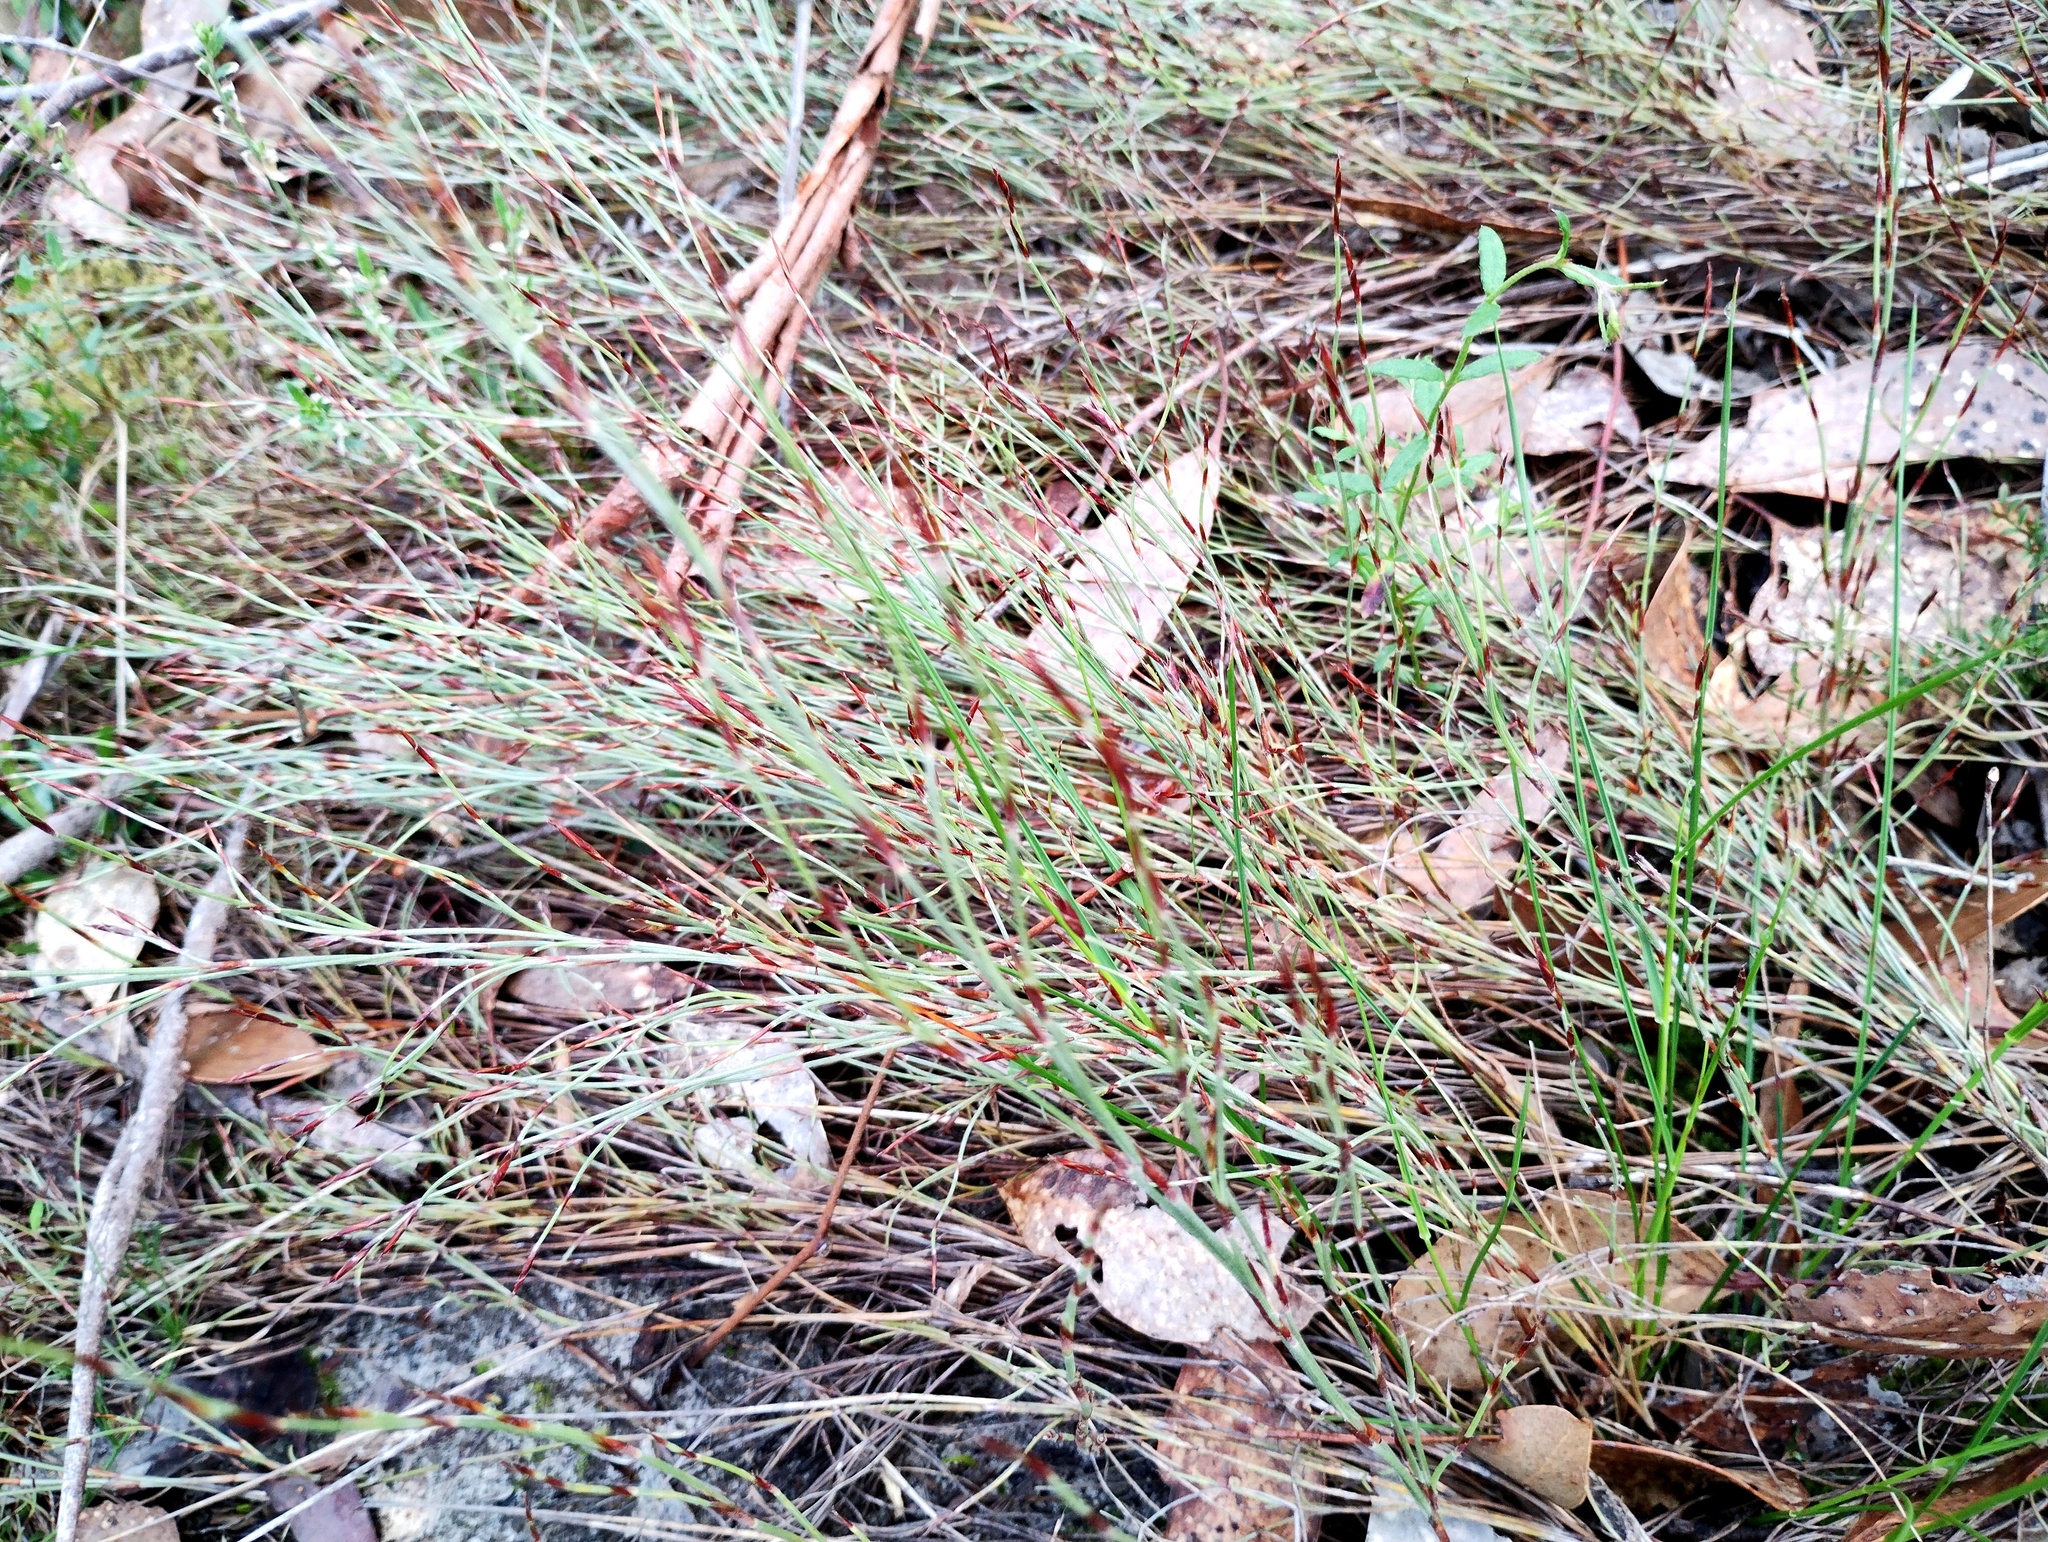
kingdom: Plantae
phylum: Tracheophyta
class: Liliopsida
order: Poales
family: Restionaceae
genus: Hypolaena
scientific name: Hypolaena fastigiata
